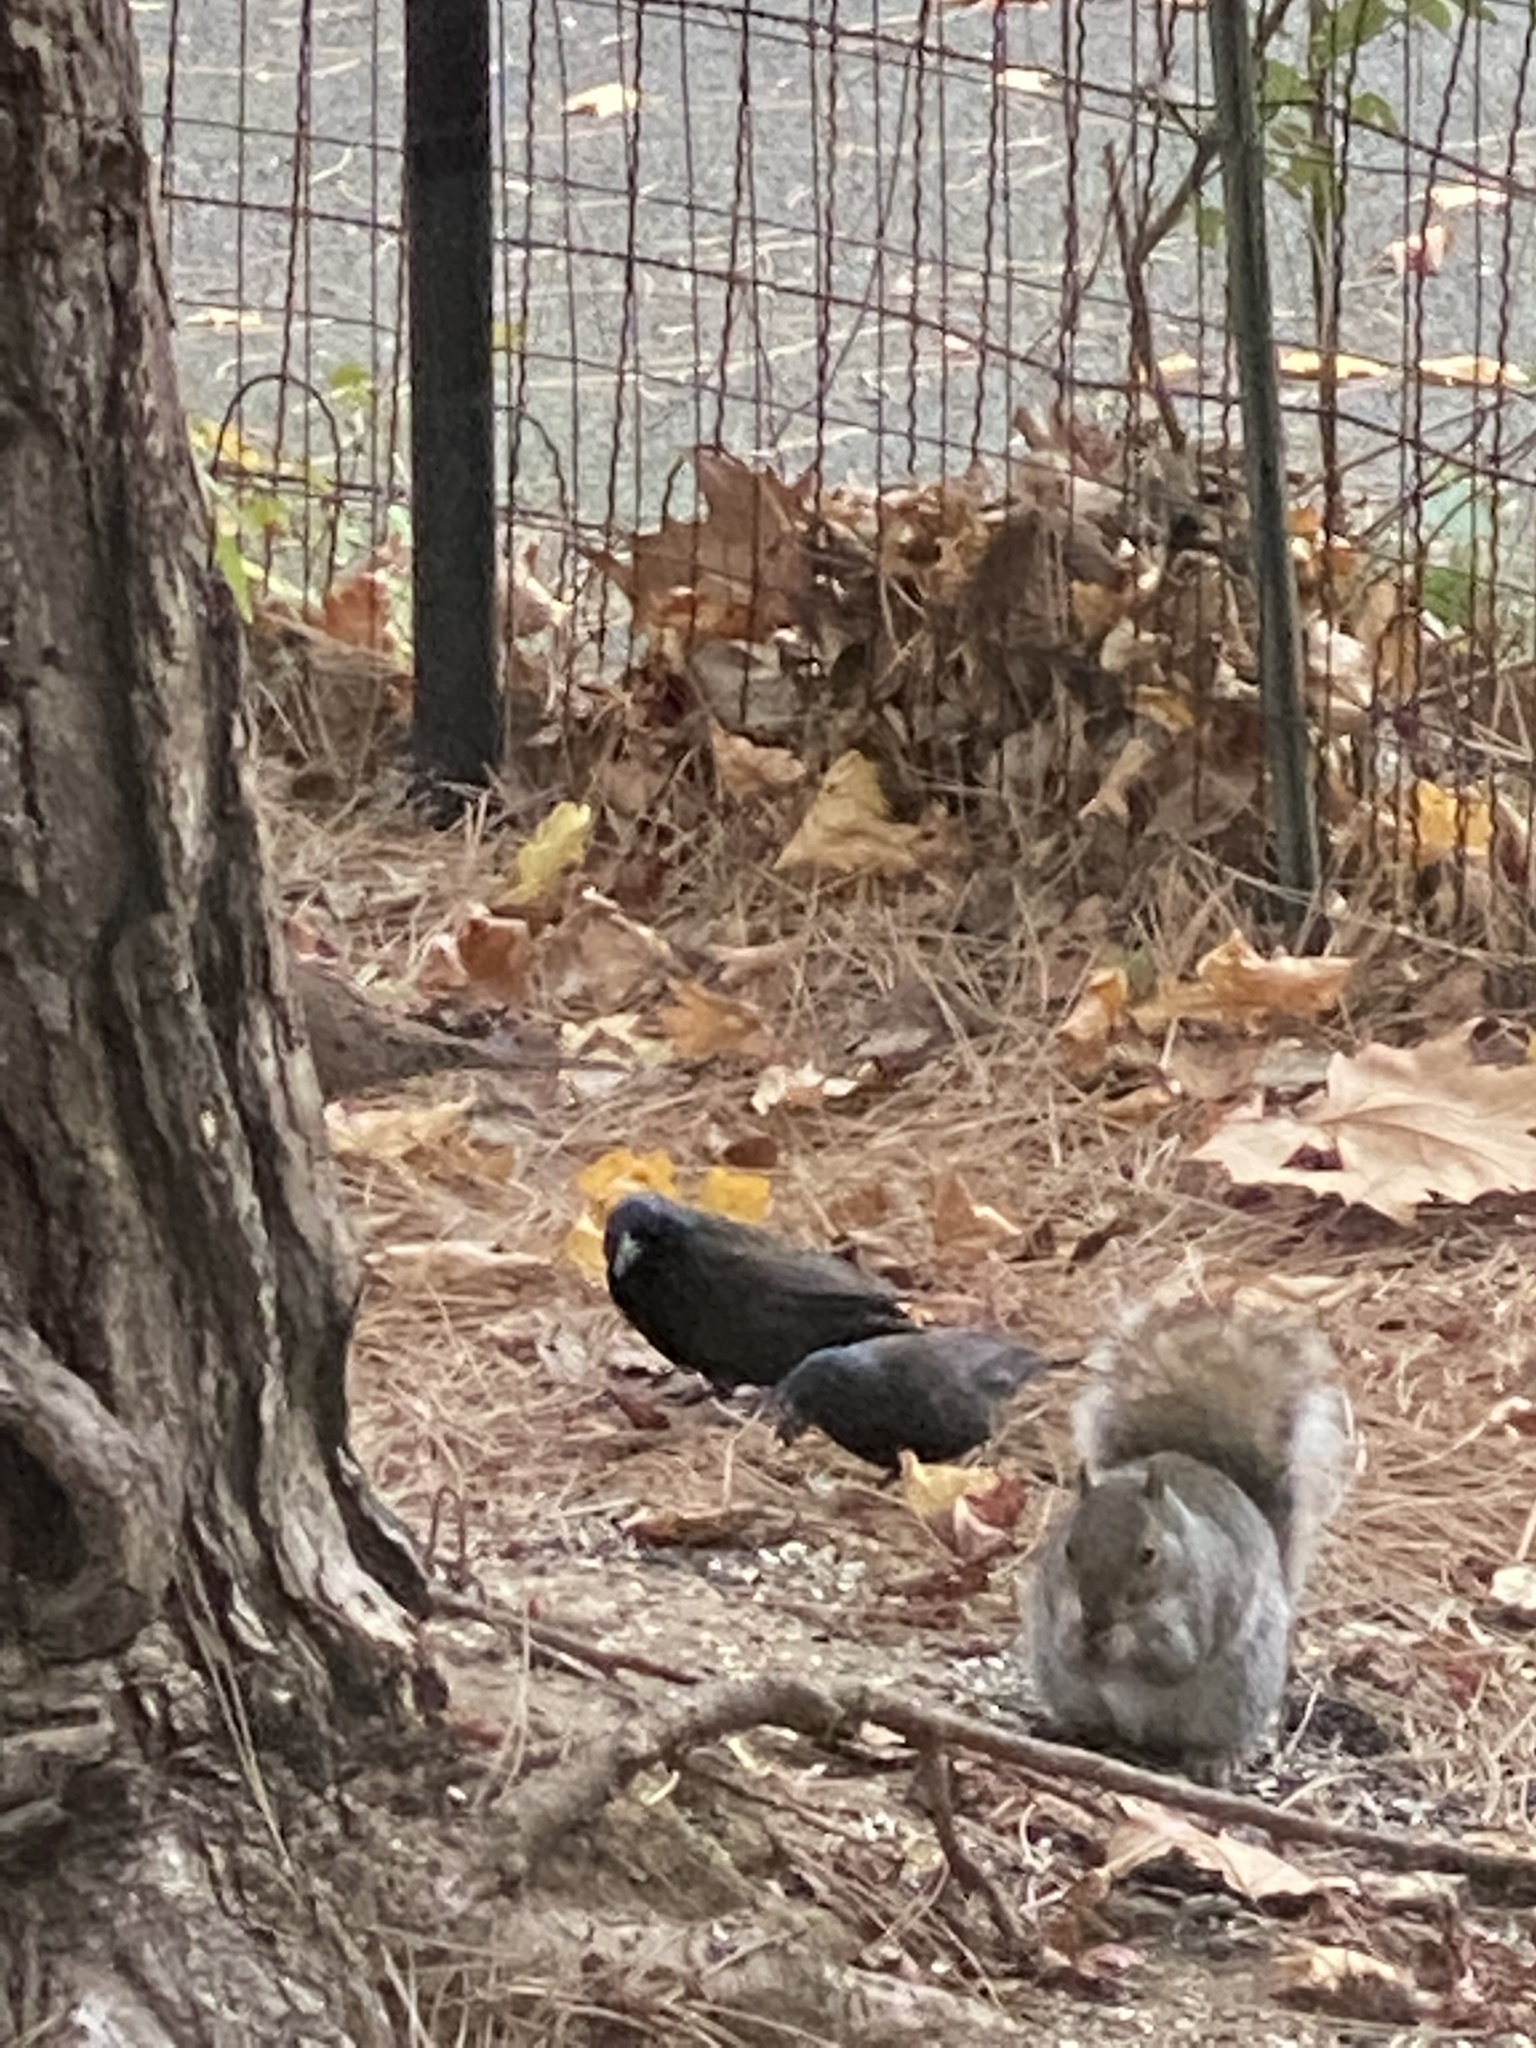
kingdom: Animalia
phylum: Chordata
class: Aves
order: Passeriformes
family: Icteridae
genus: Quiscalus
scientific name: Quiscalus quiscula
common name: Common grackle
